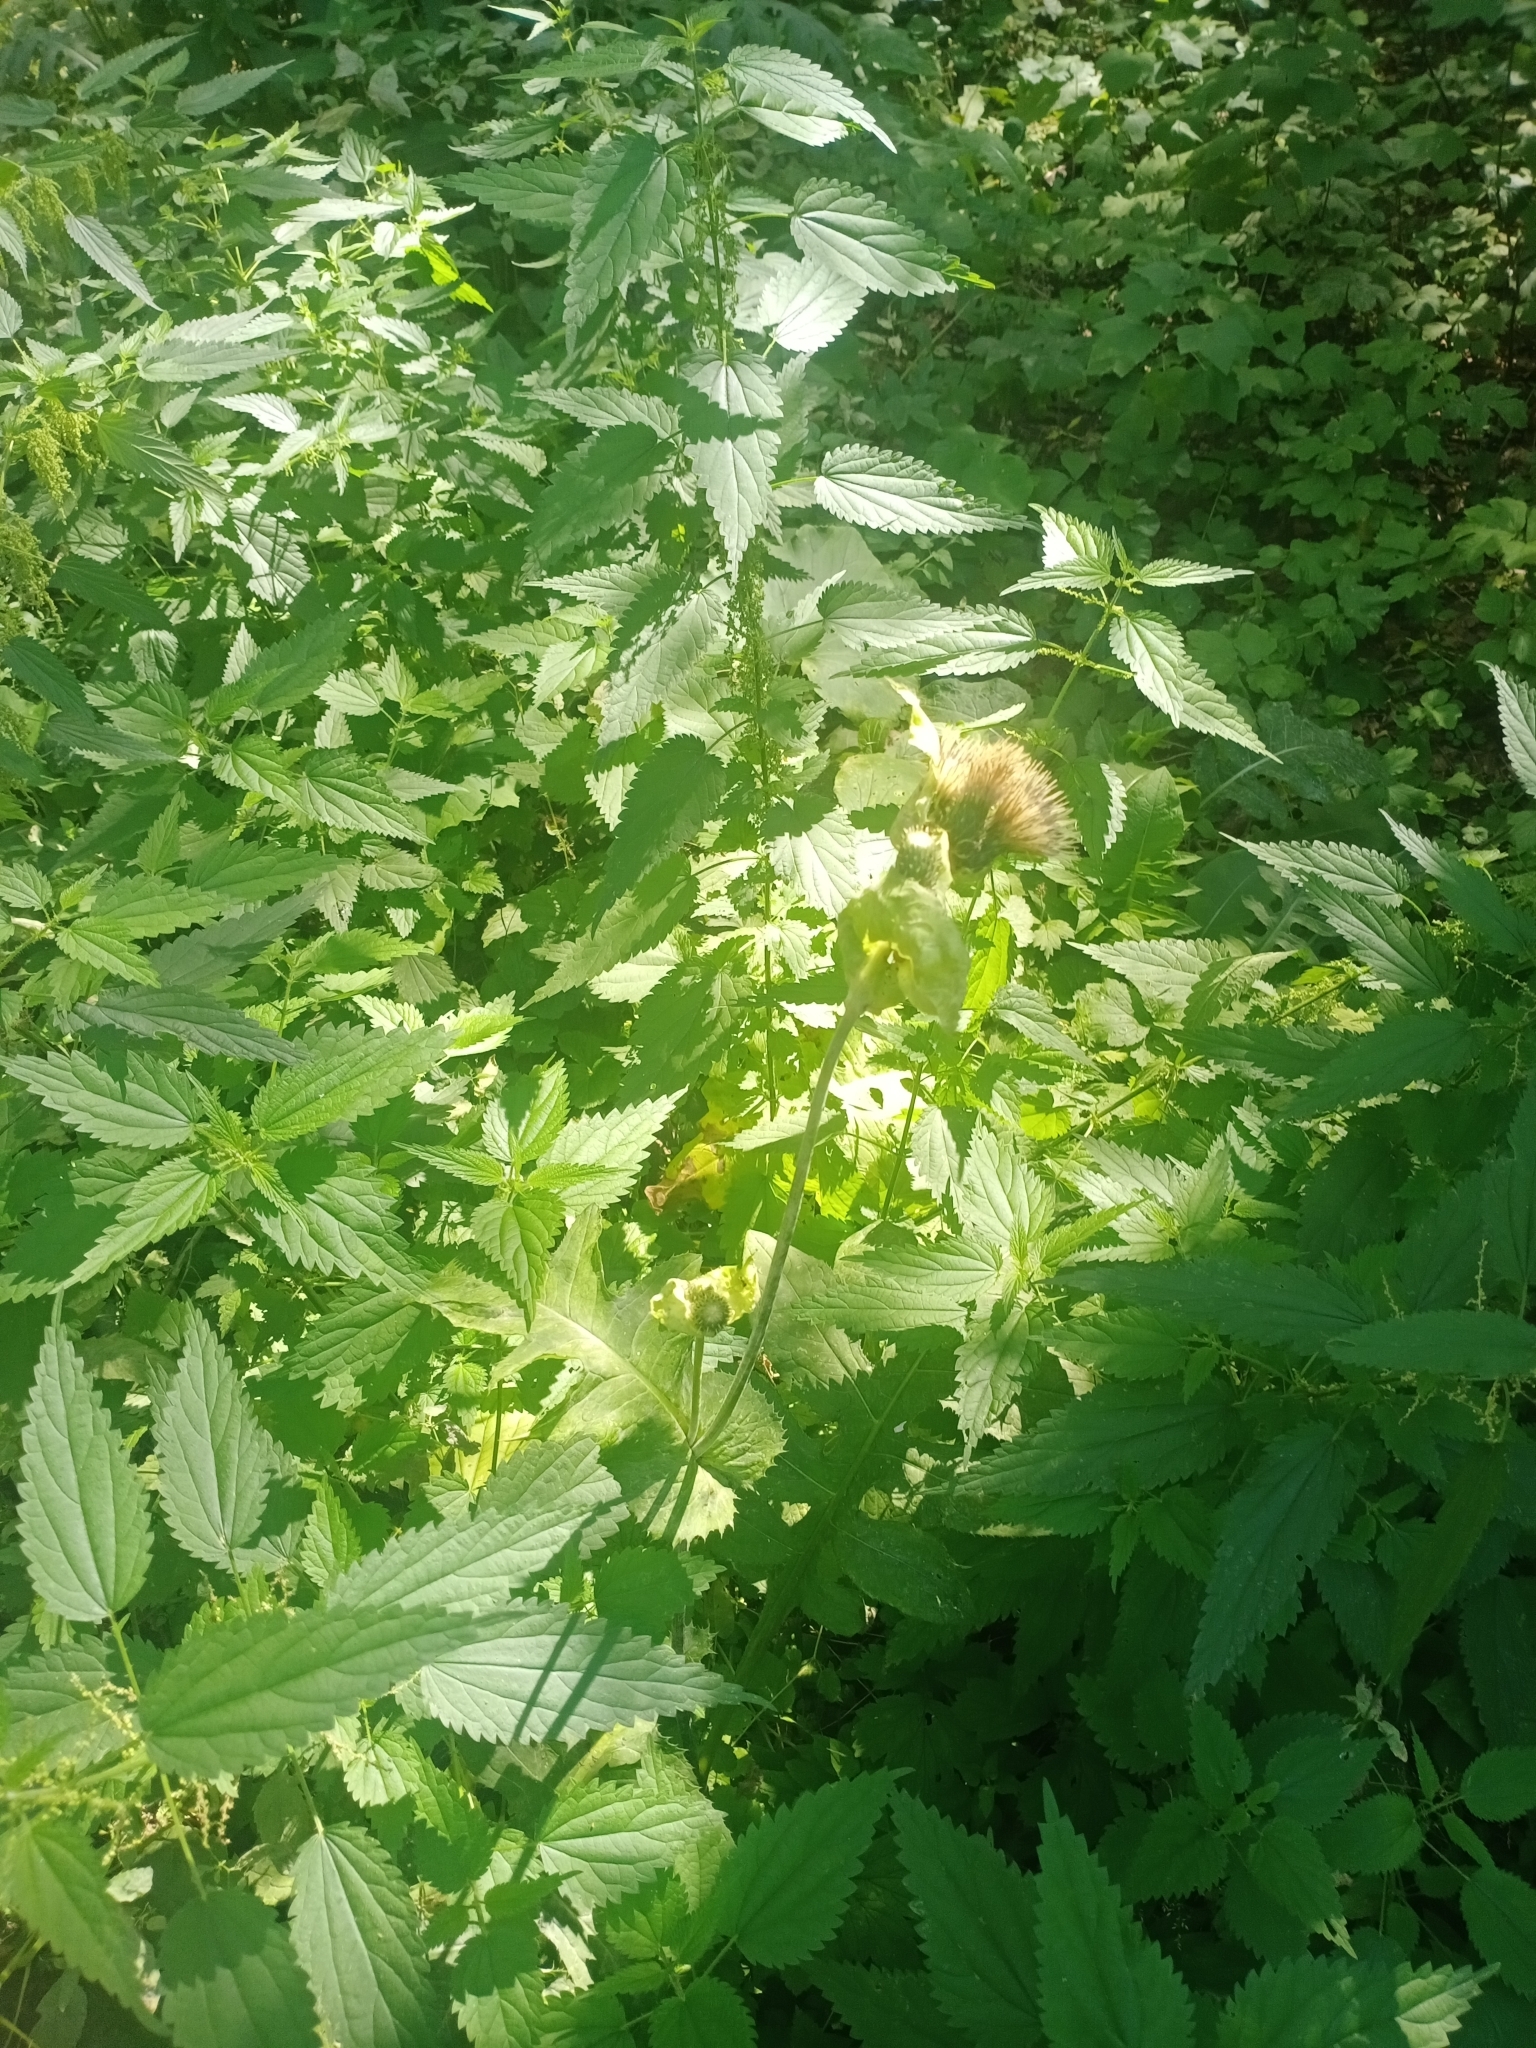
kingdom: Plantae
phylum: Tracheophyta
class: Magnoliopsida
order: Asterales
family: Asteraceae
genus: Cirsium
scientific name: Cirsium oleraceum
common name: Cabbage thistle
